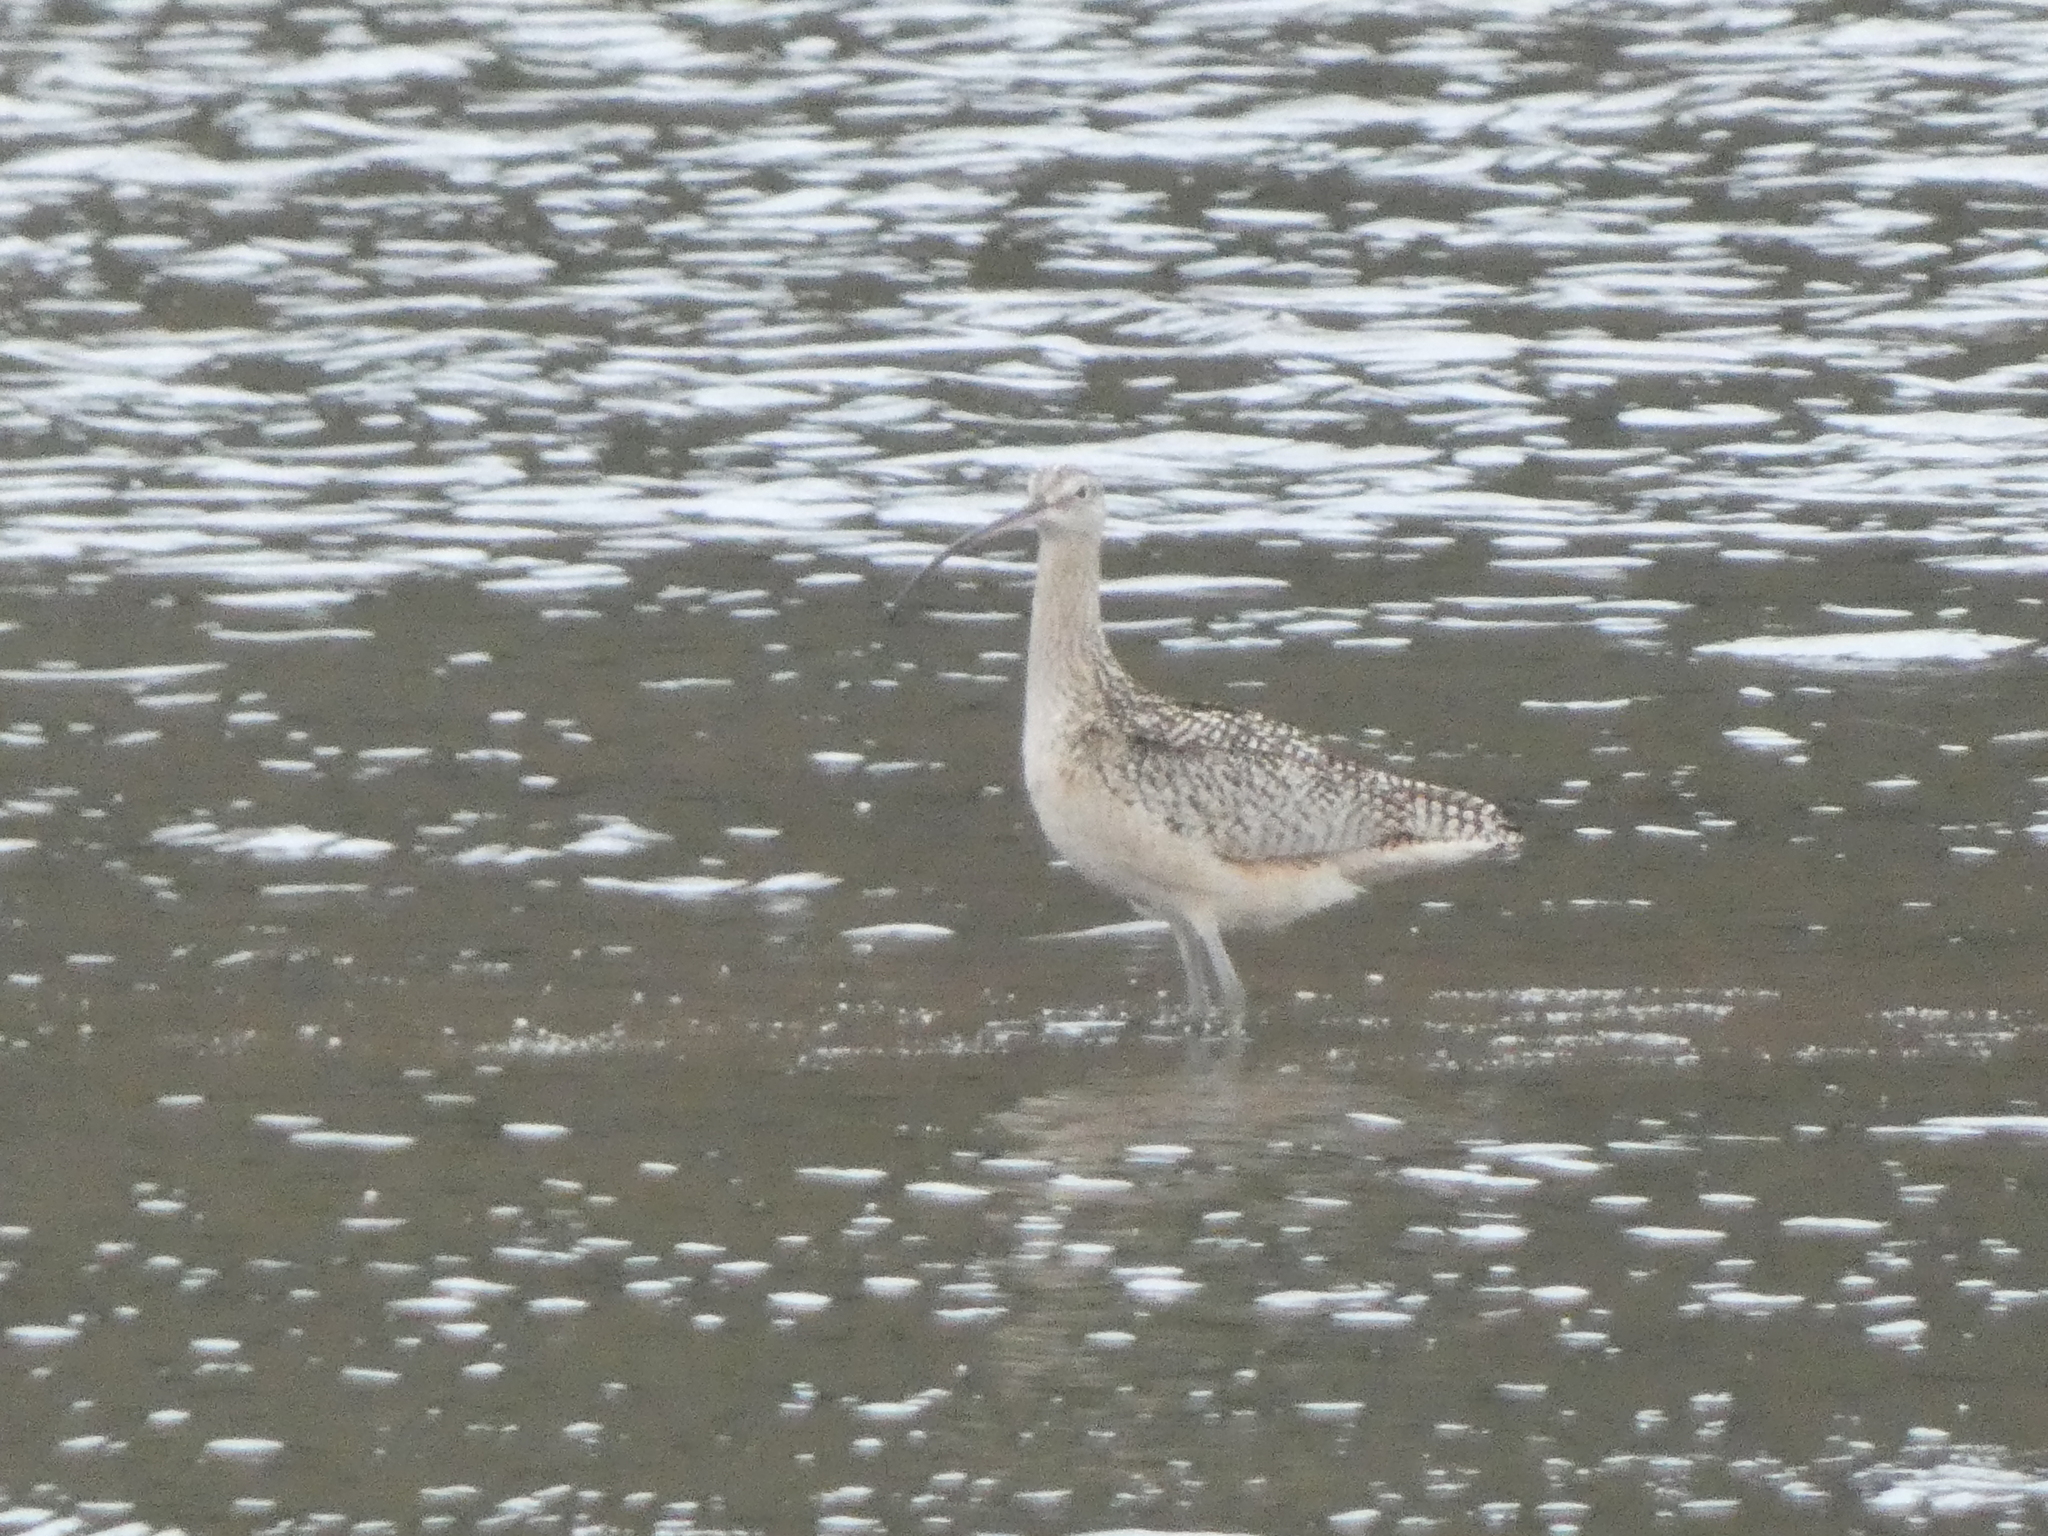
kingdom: Animalia
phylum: Chordata
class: Aves
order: Charadriiformes
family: Scolopacidae
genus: Numenius
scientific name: Numenius americanus
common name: Long-billed curlew
